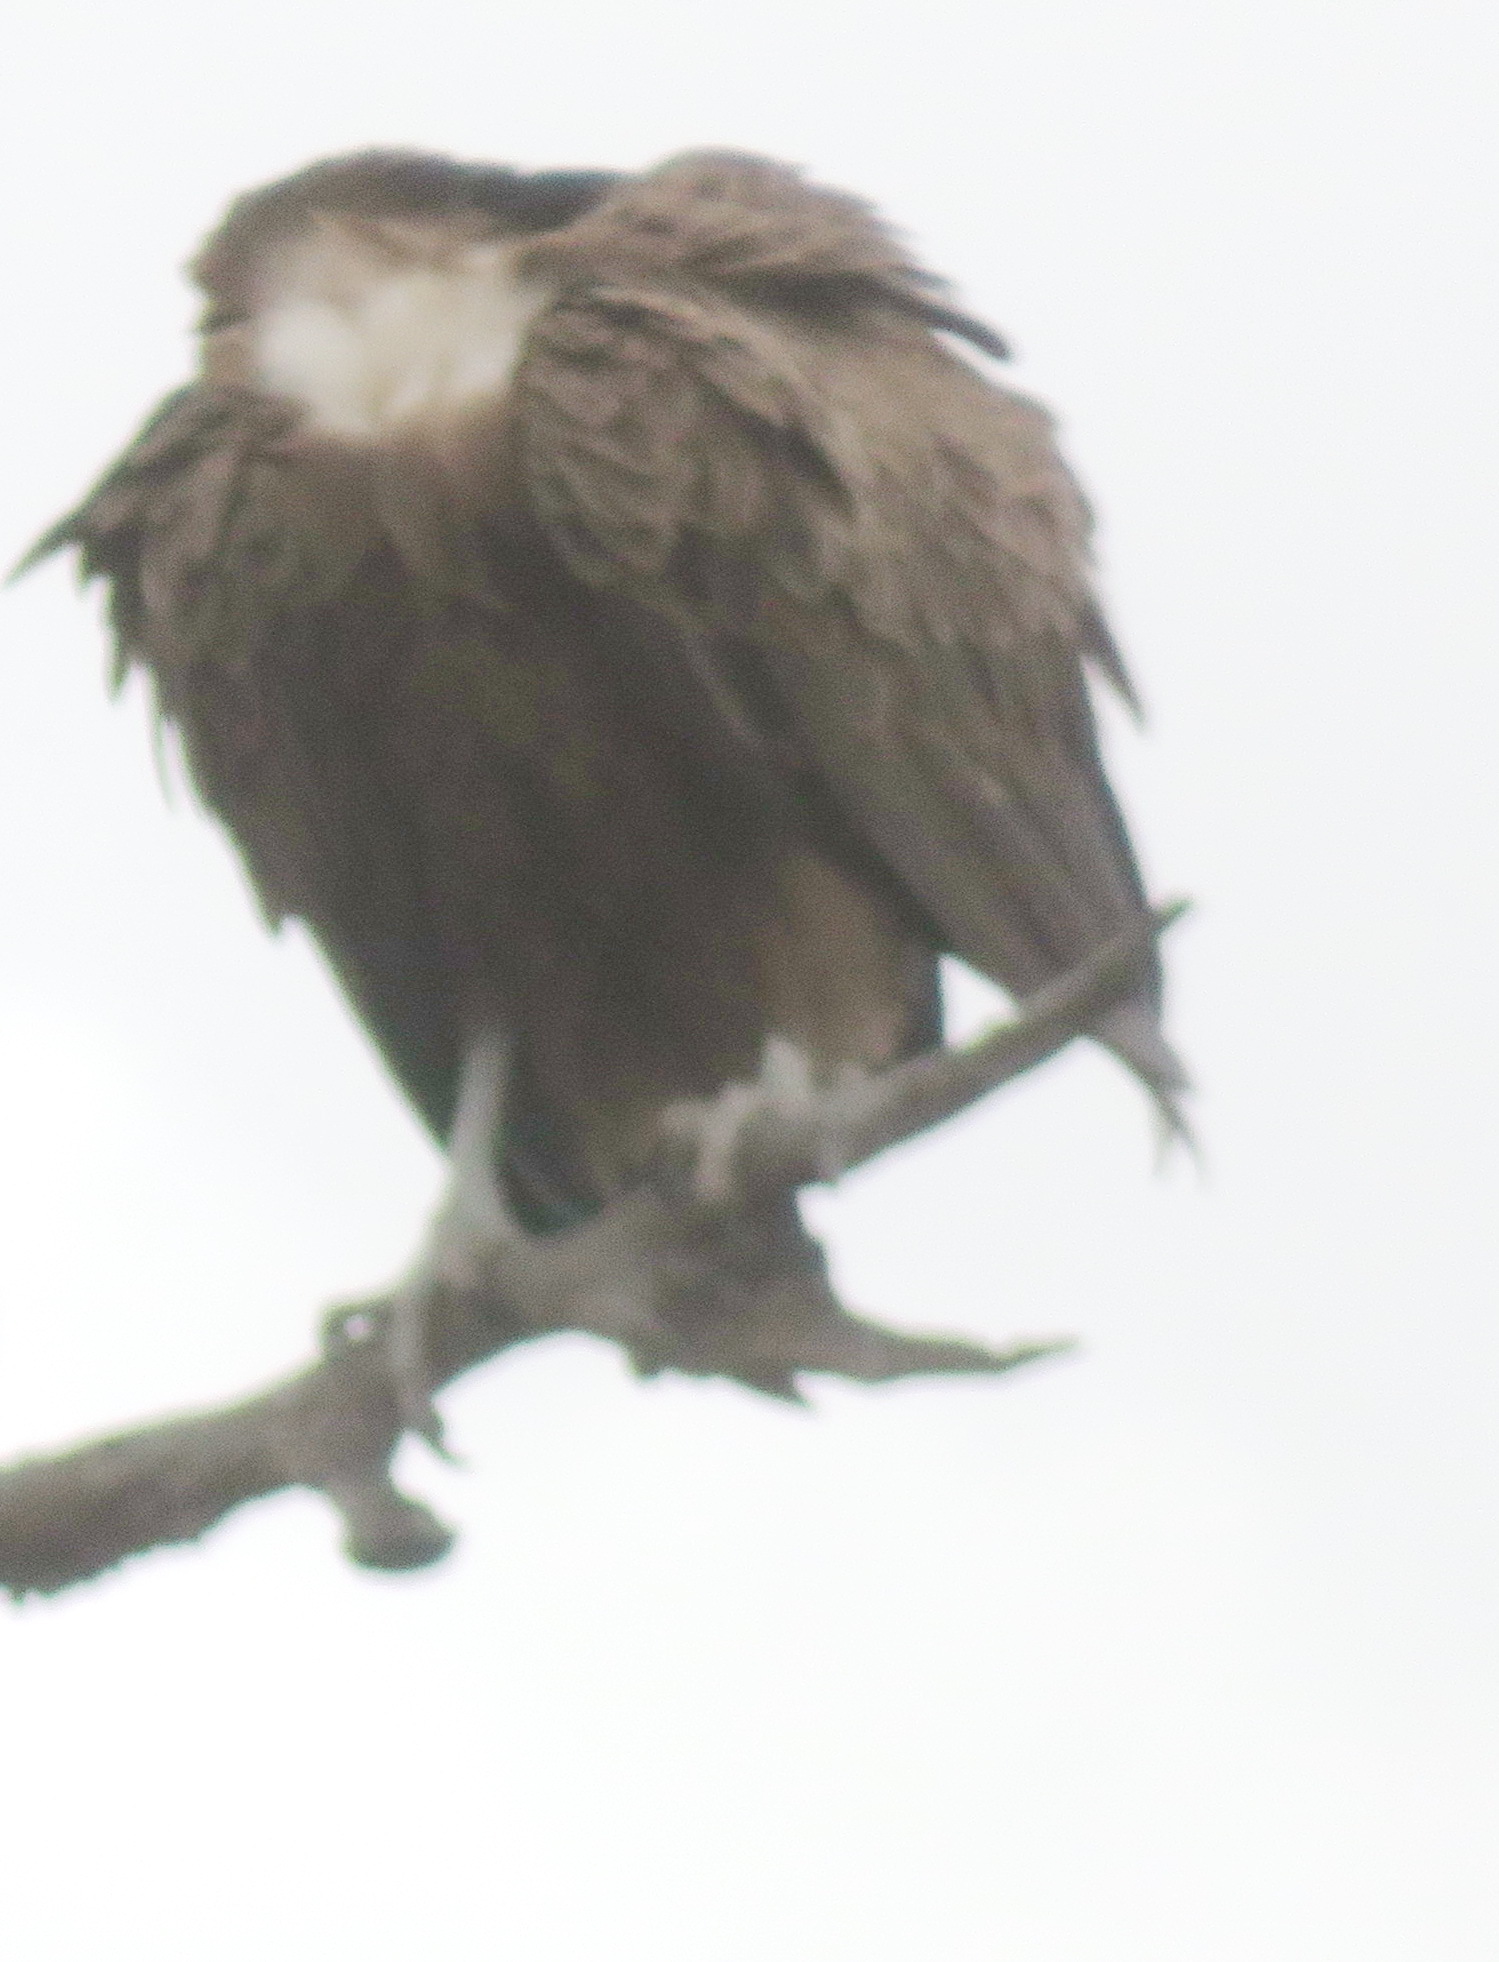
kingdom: Animalia
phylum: Chordata
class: Aves
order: Accipitriformes
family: Accipitridae
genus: Necrosyrtes
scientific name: Necrosyrtes monachus
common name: Hooded vulture
